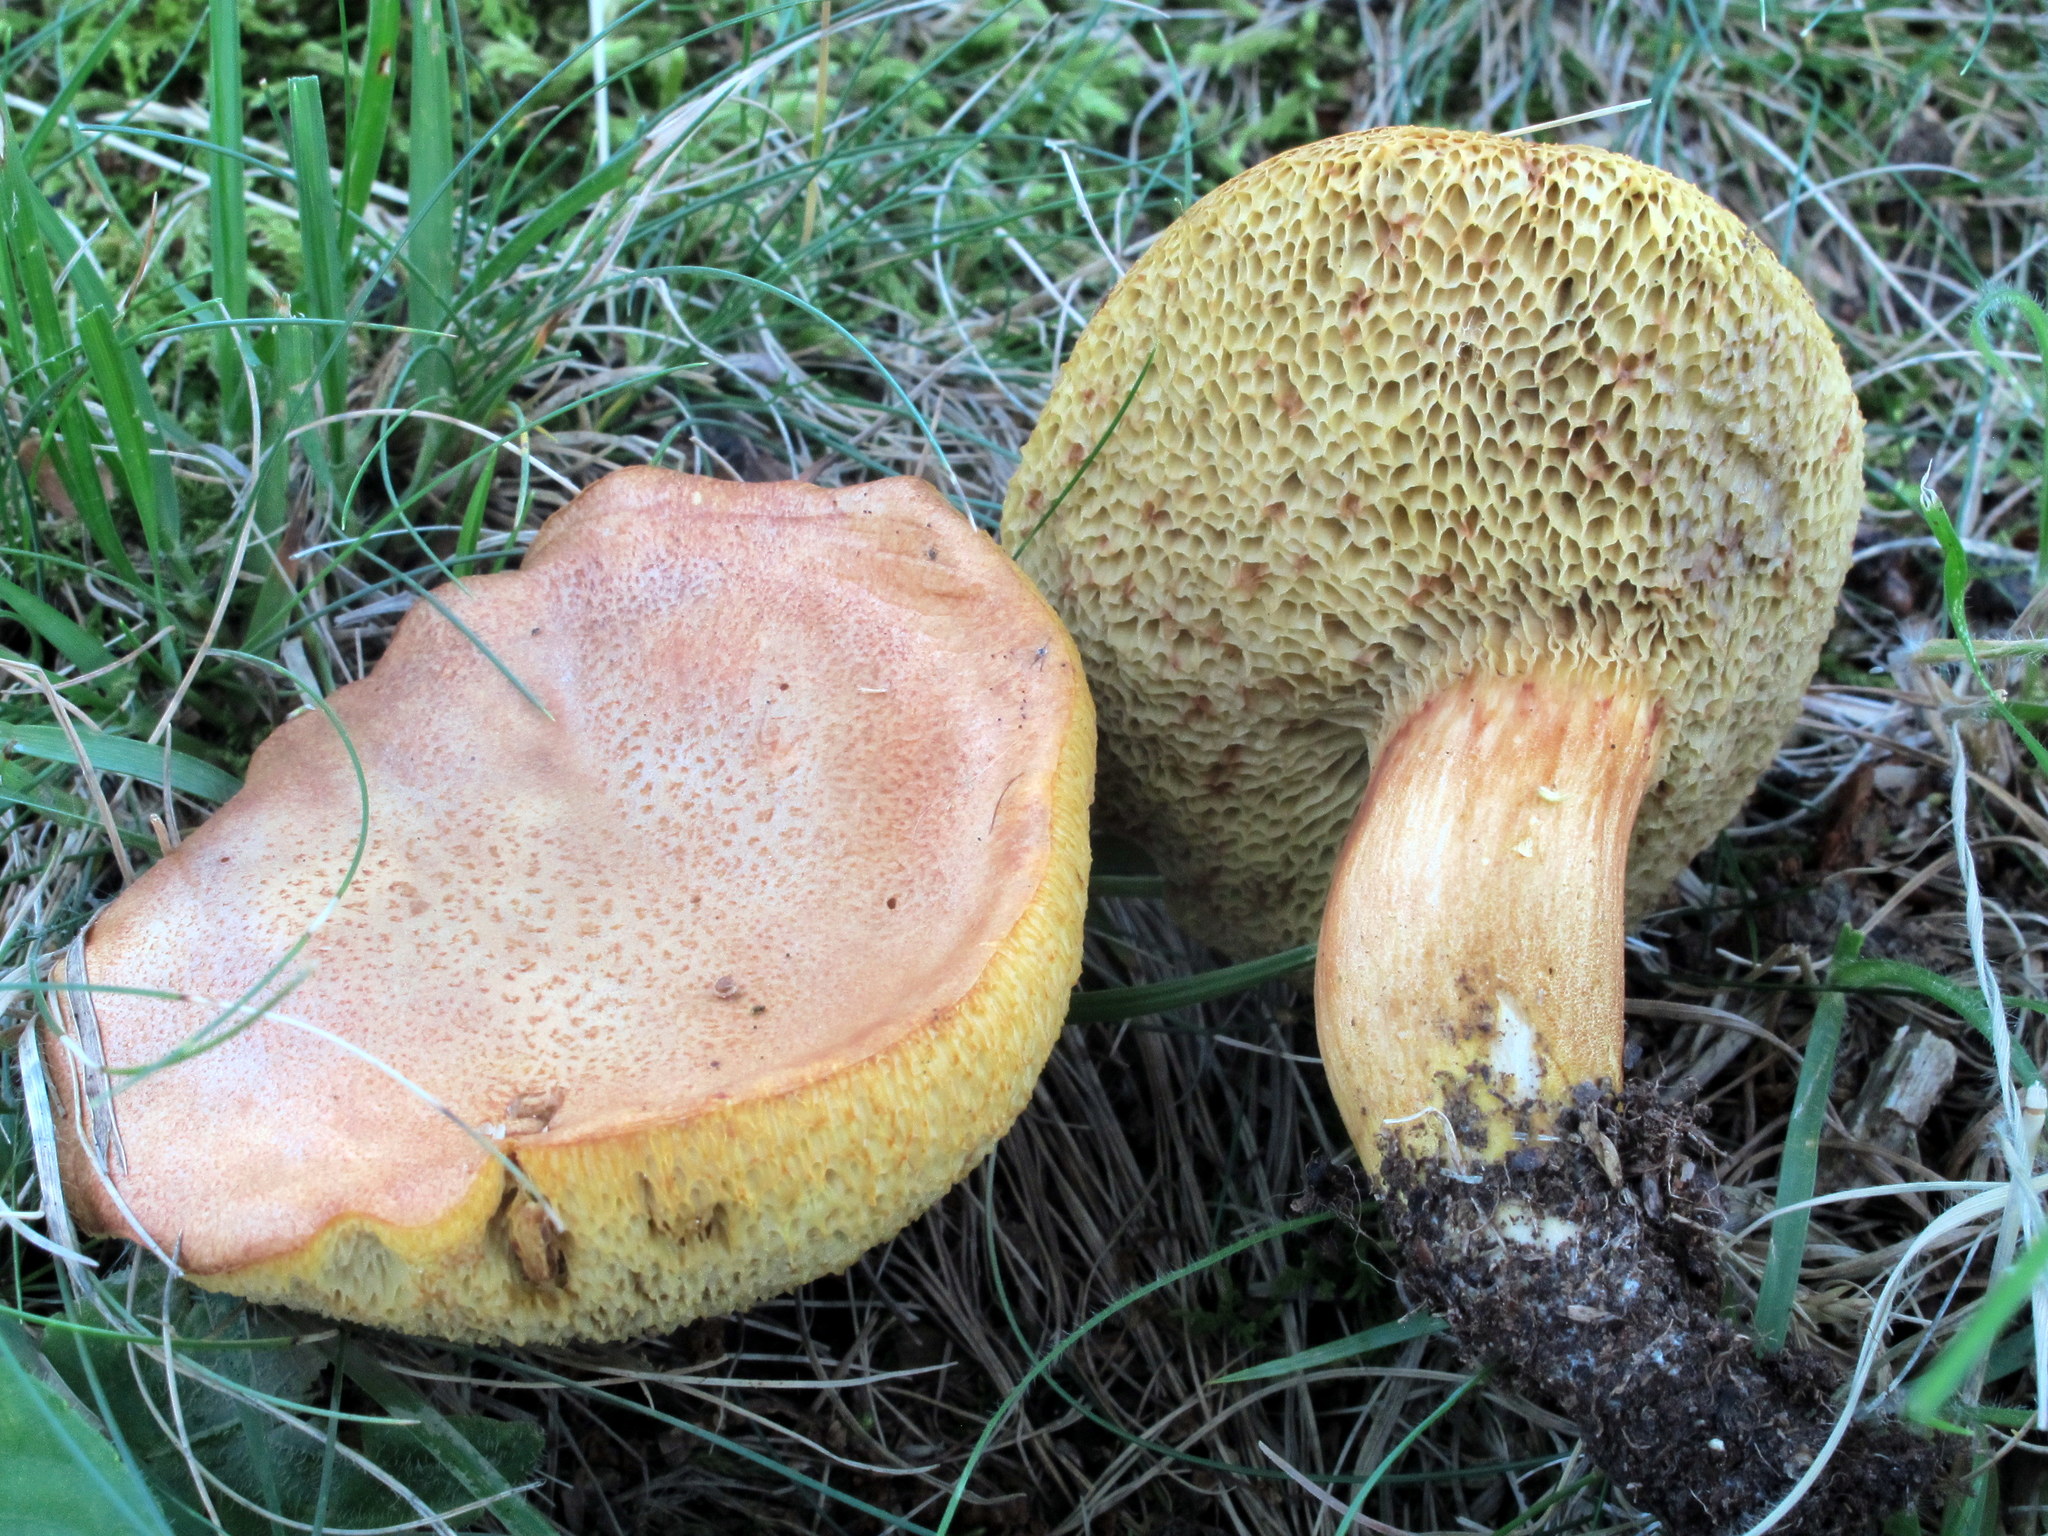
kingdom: Fungi
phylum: Basidiomycota
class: Agaricomycetes
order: Boletales
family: Boletaceae
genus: Aureoboletus
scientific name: Aureoboletus roxanae
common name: Roxane's bolete
